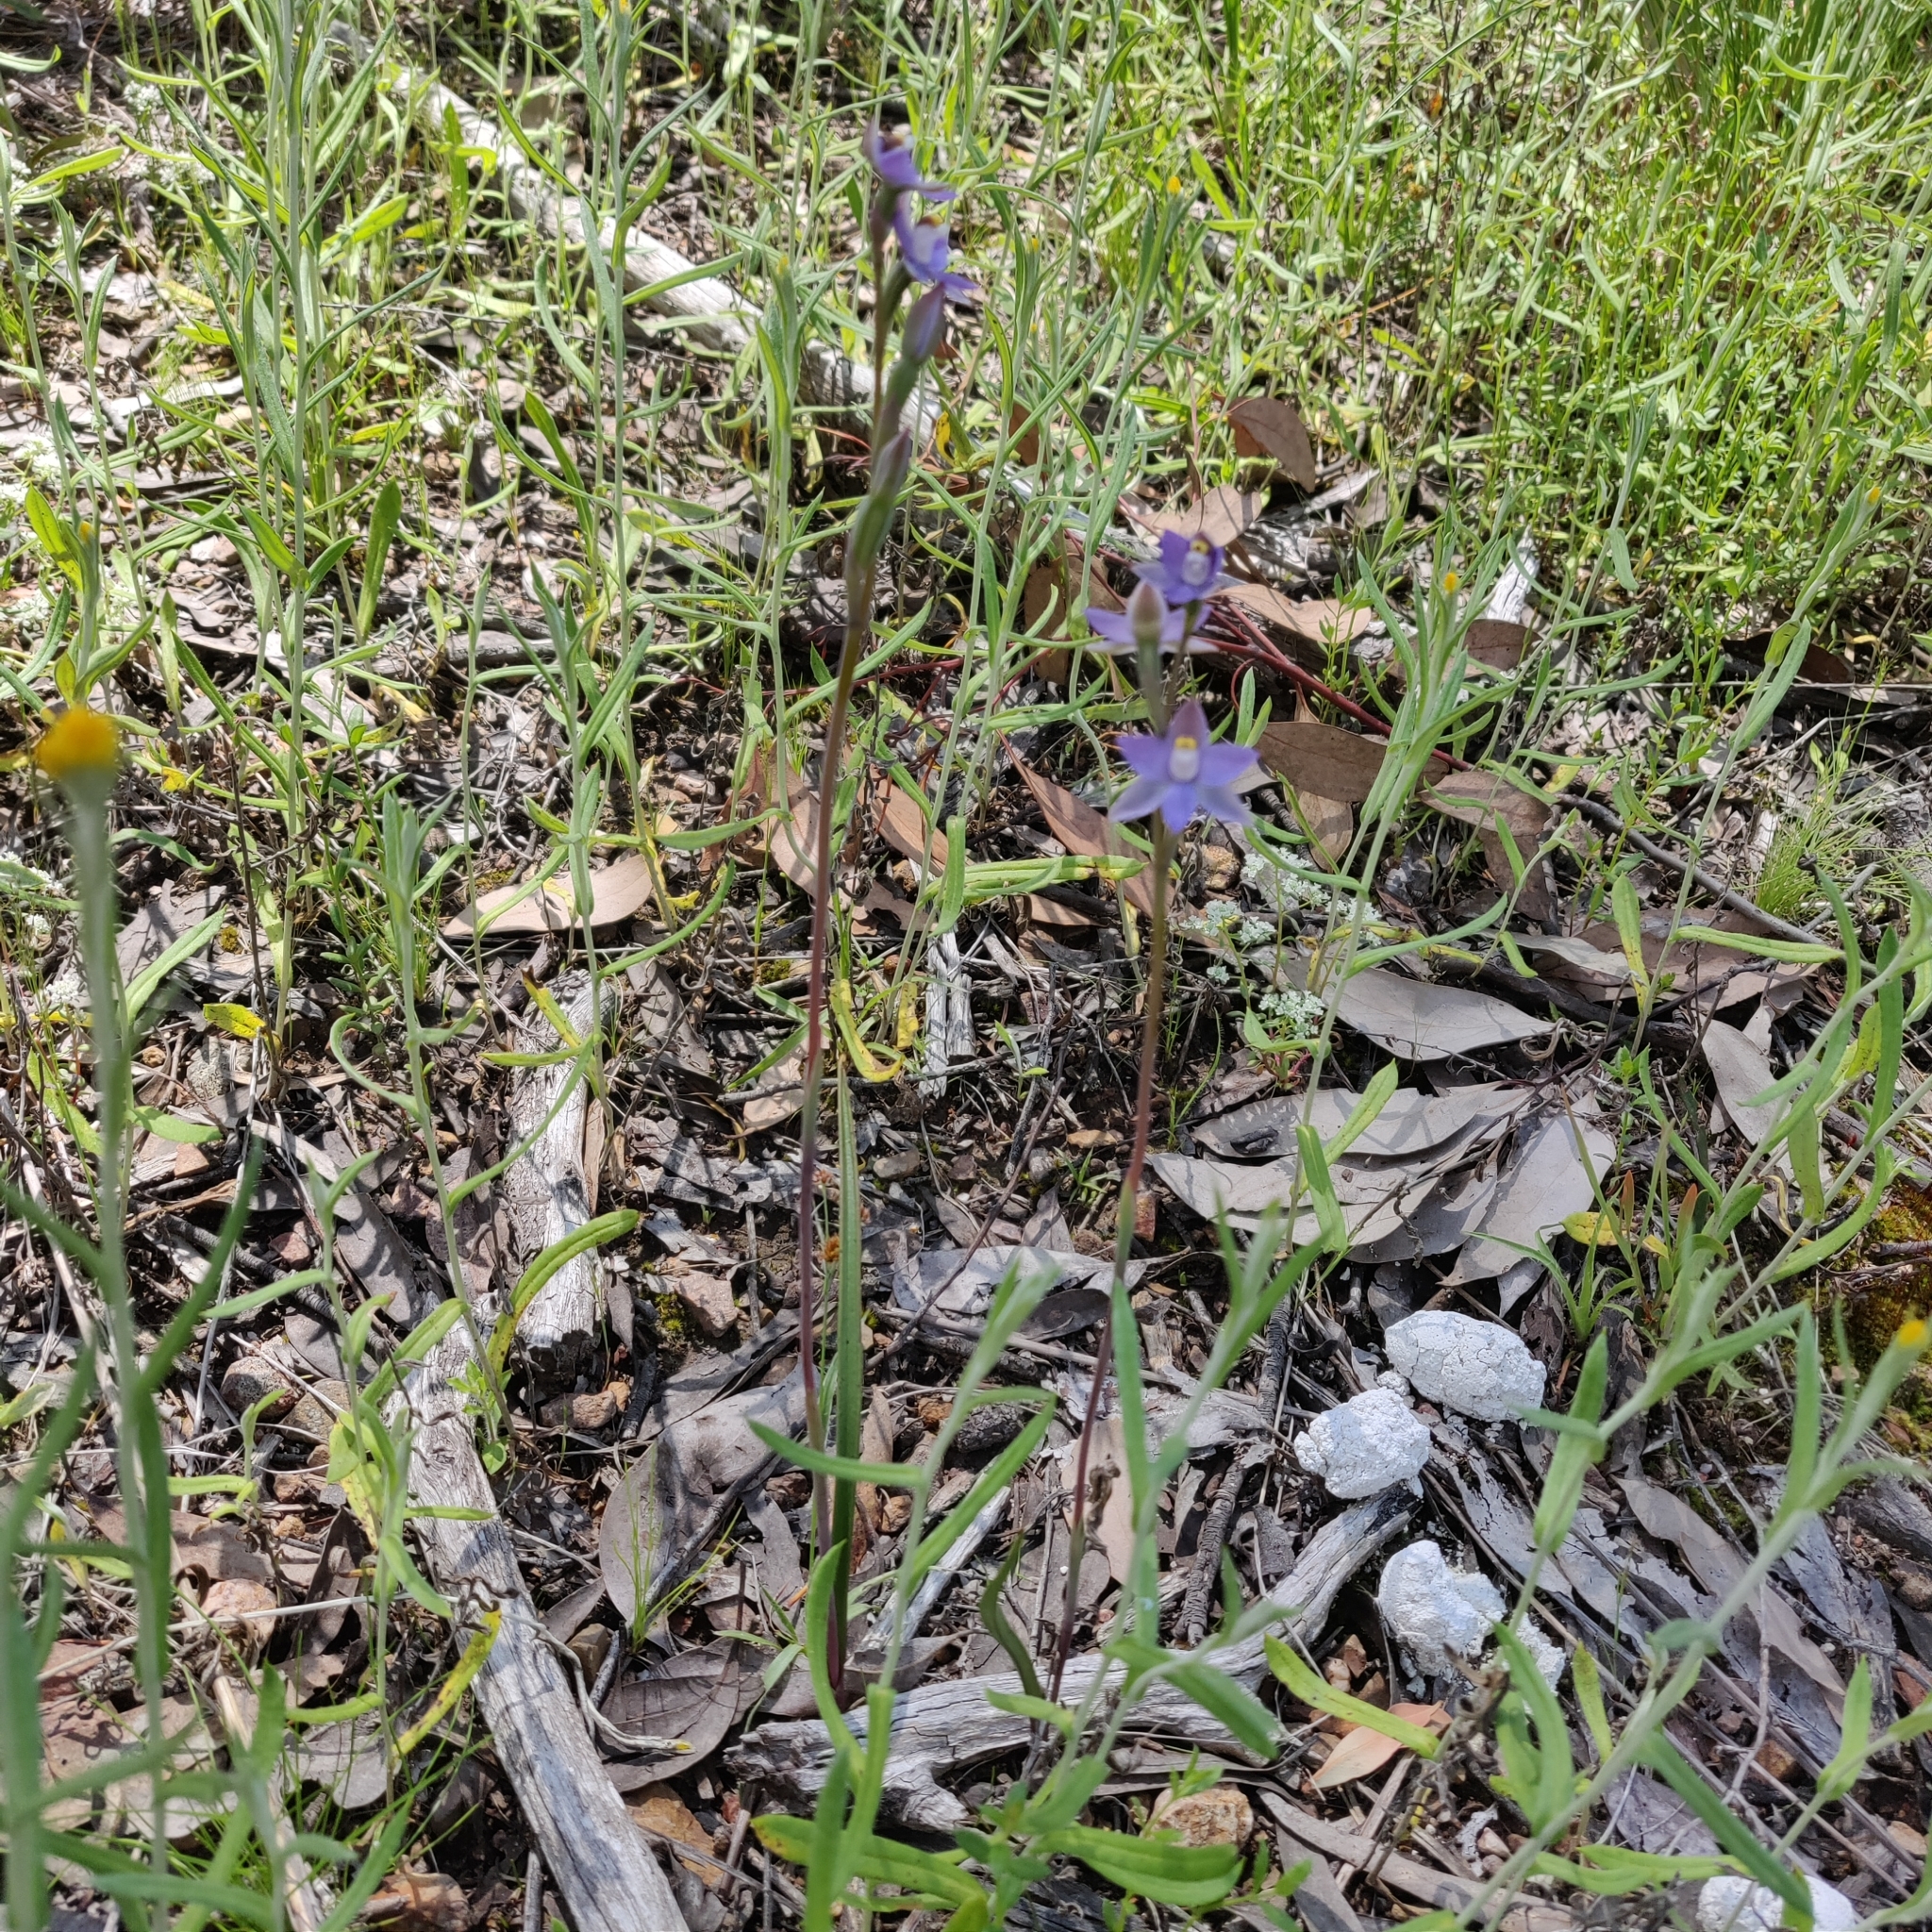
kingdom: Plantae
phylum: Tracheophyta
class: Liliopsida
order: Asparagales
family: Orchidaceae
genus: Thelymitra
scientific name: Thelymitra peniculata
